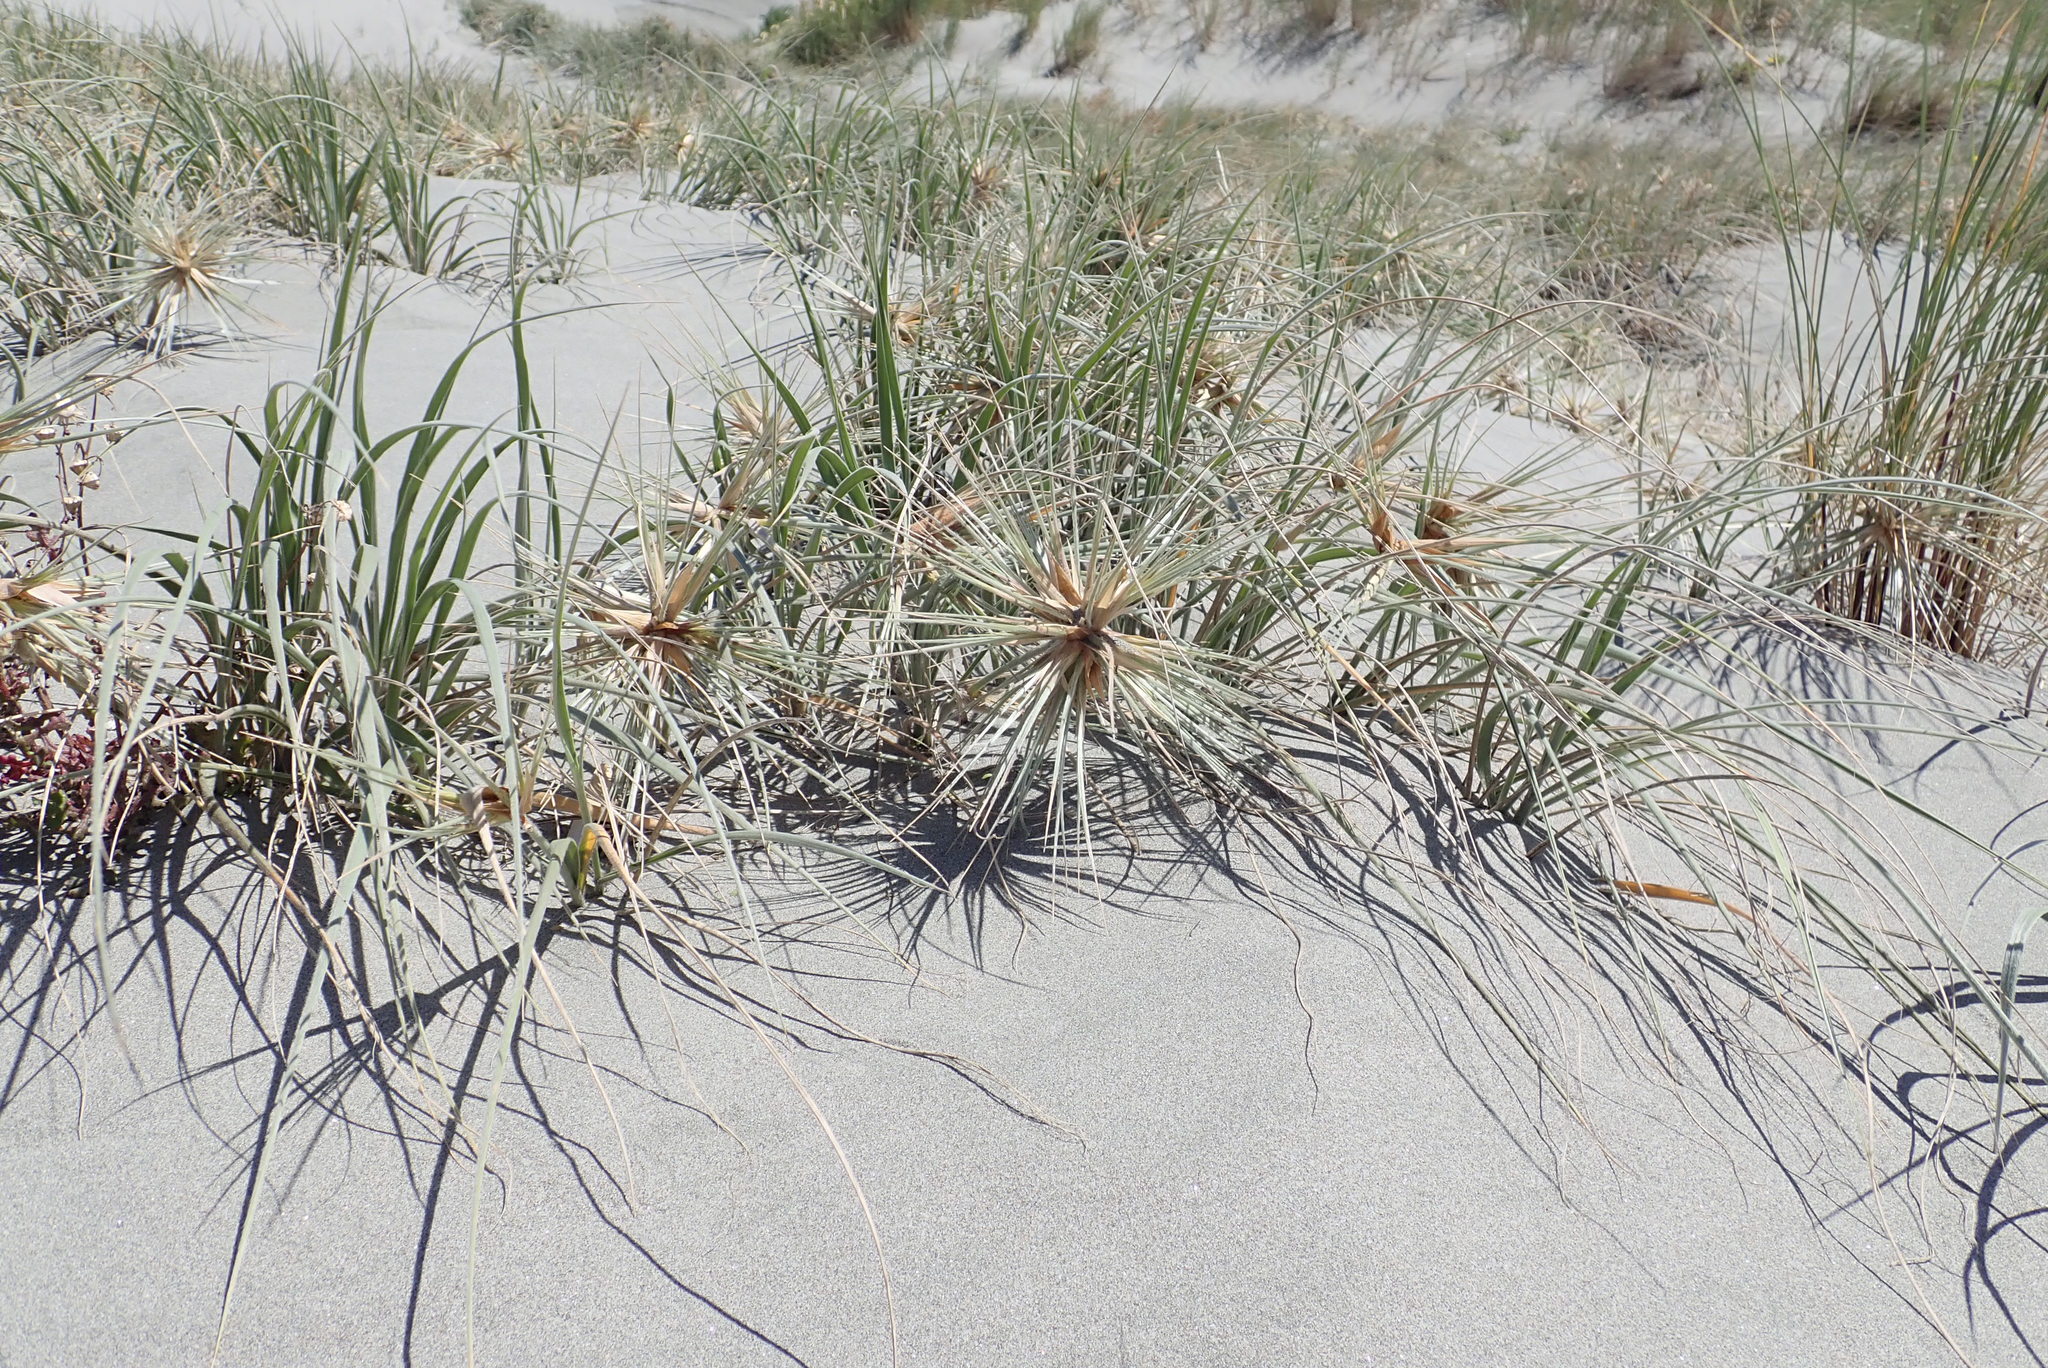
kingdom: Plantae
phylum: Tracheophyta
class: Liliopsida
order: Poales
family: Poaceae
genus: Spinifex
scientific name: Spinifex sericeus
